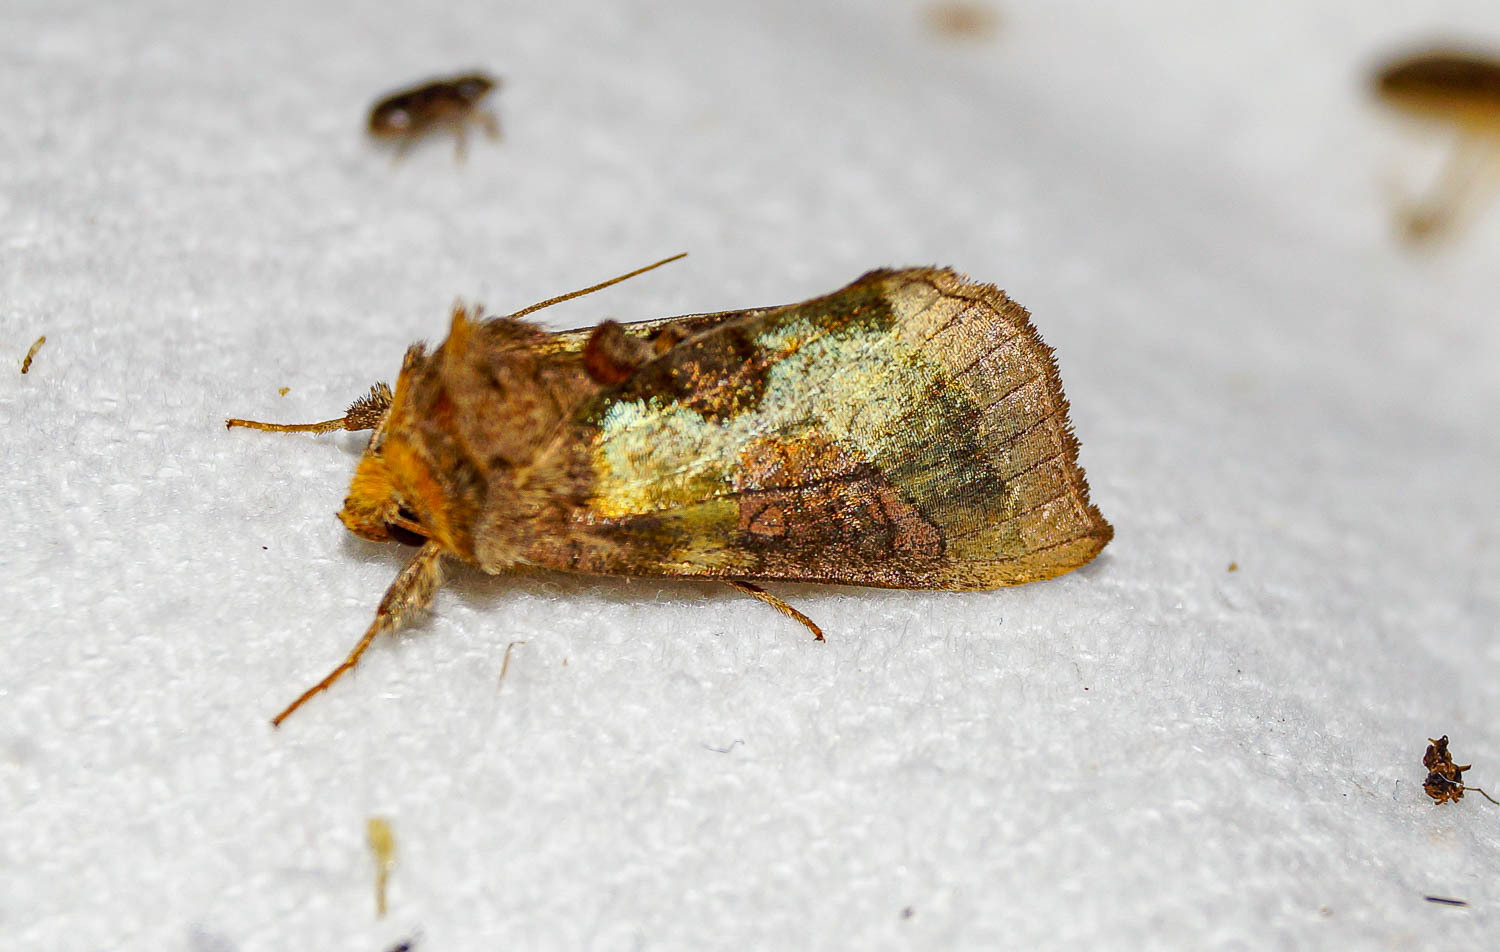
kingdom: Animalia
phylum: Arthropoda
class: Insecta
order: Lepidoptera
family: Noctuidae
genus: Diachrysia
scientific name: Diachrysia stenochrysis
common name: Cryptic burnished brass
